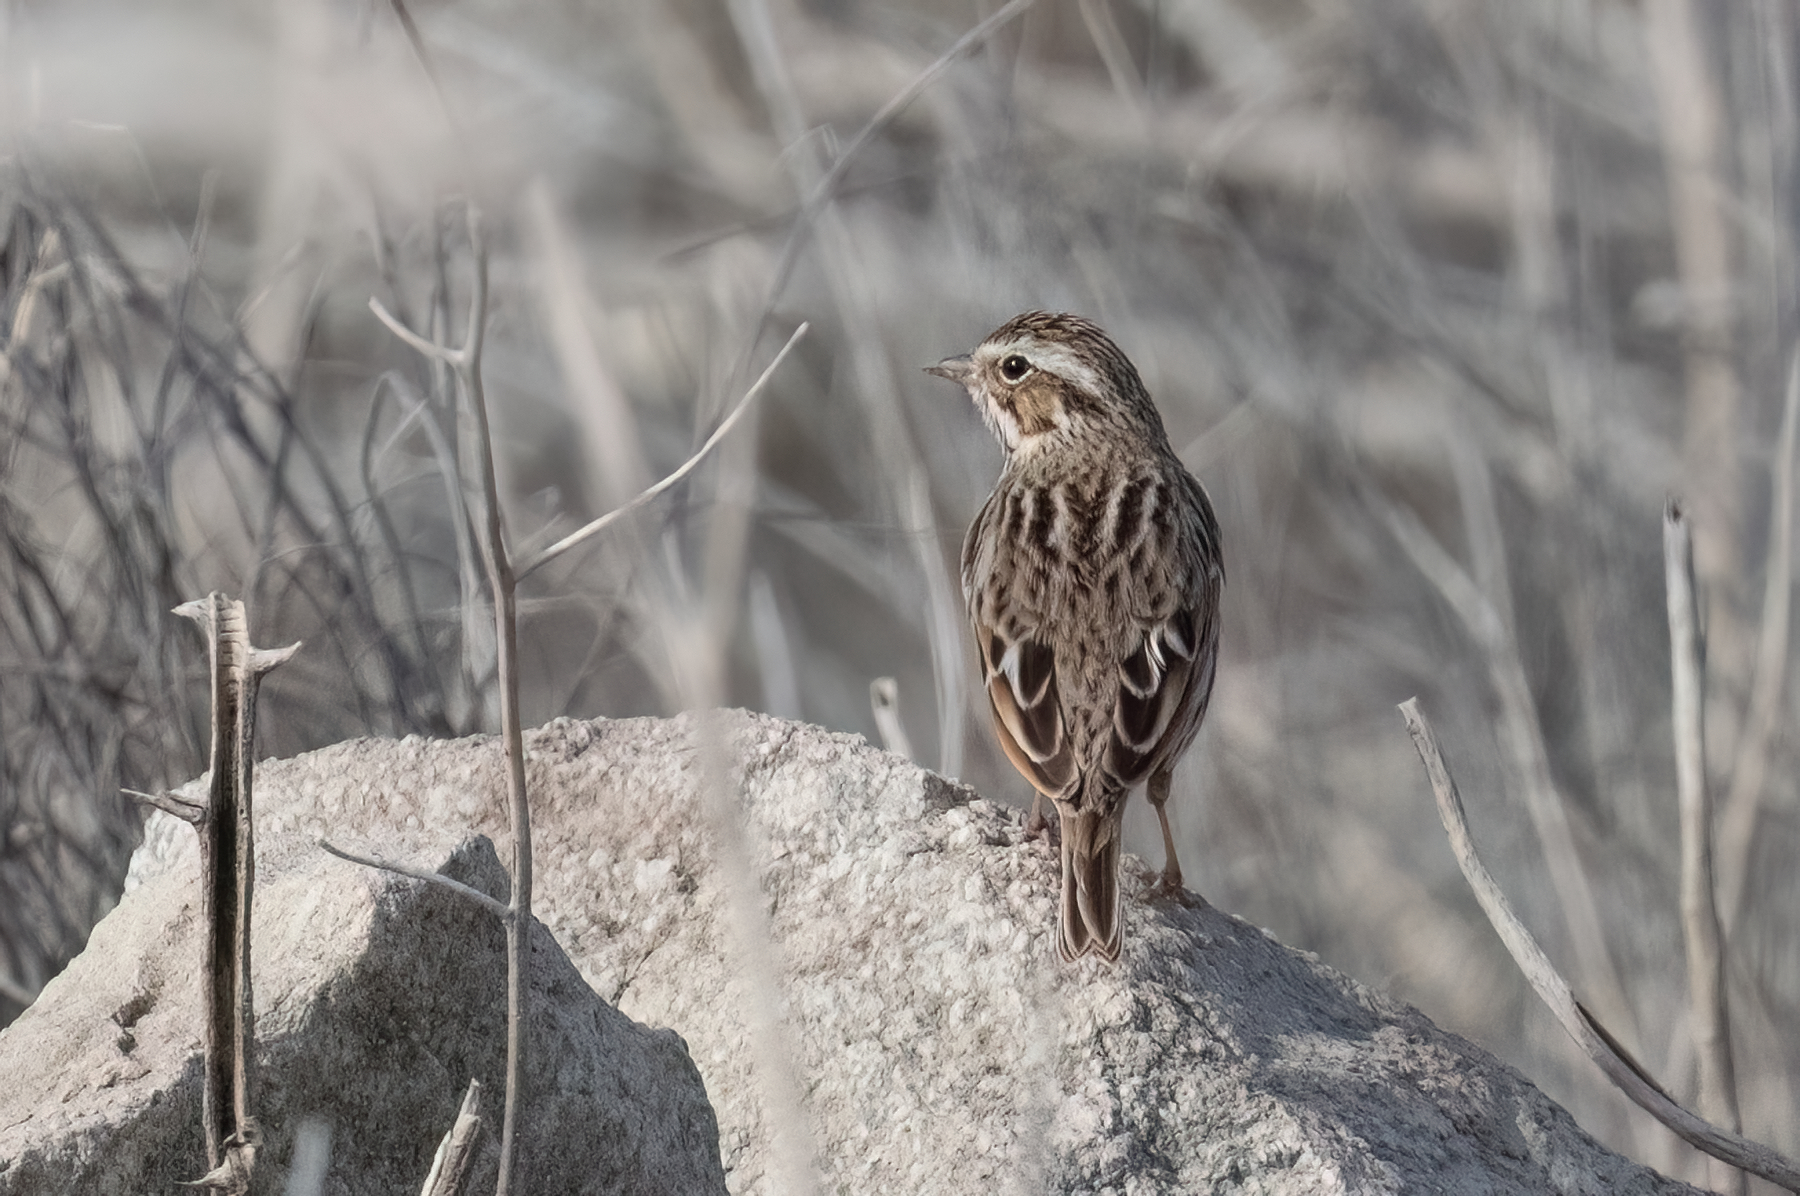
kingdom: Animalia
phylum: Chordata
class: Aves
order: Passeriformes
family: Passerellidae
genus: Passerculus
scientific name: Passerculus sandwichensis
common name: Savannah sparrow
